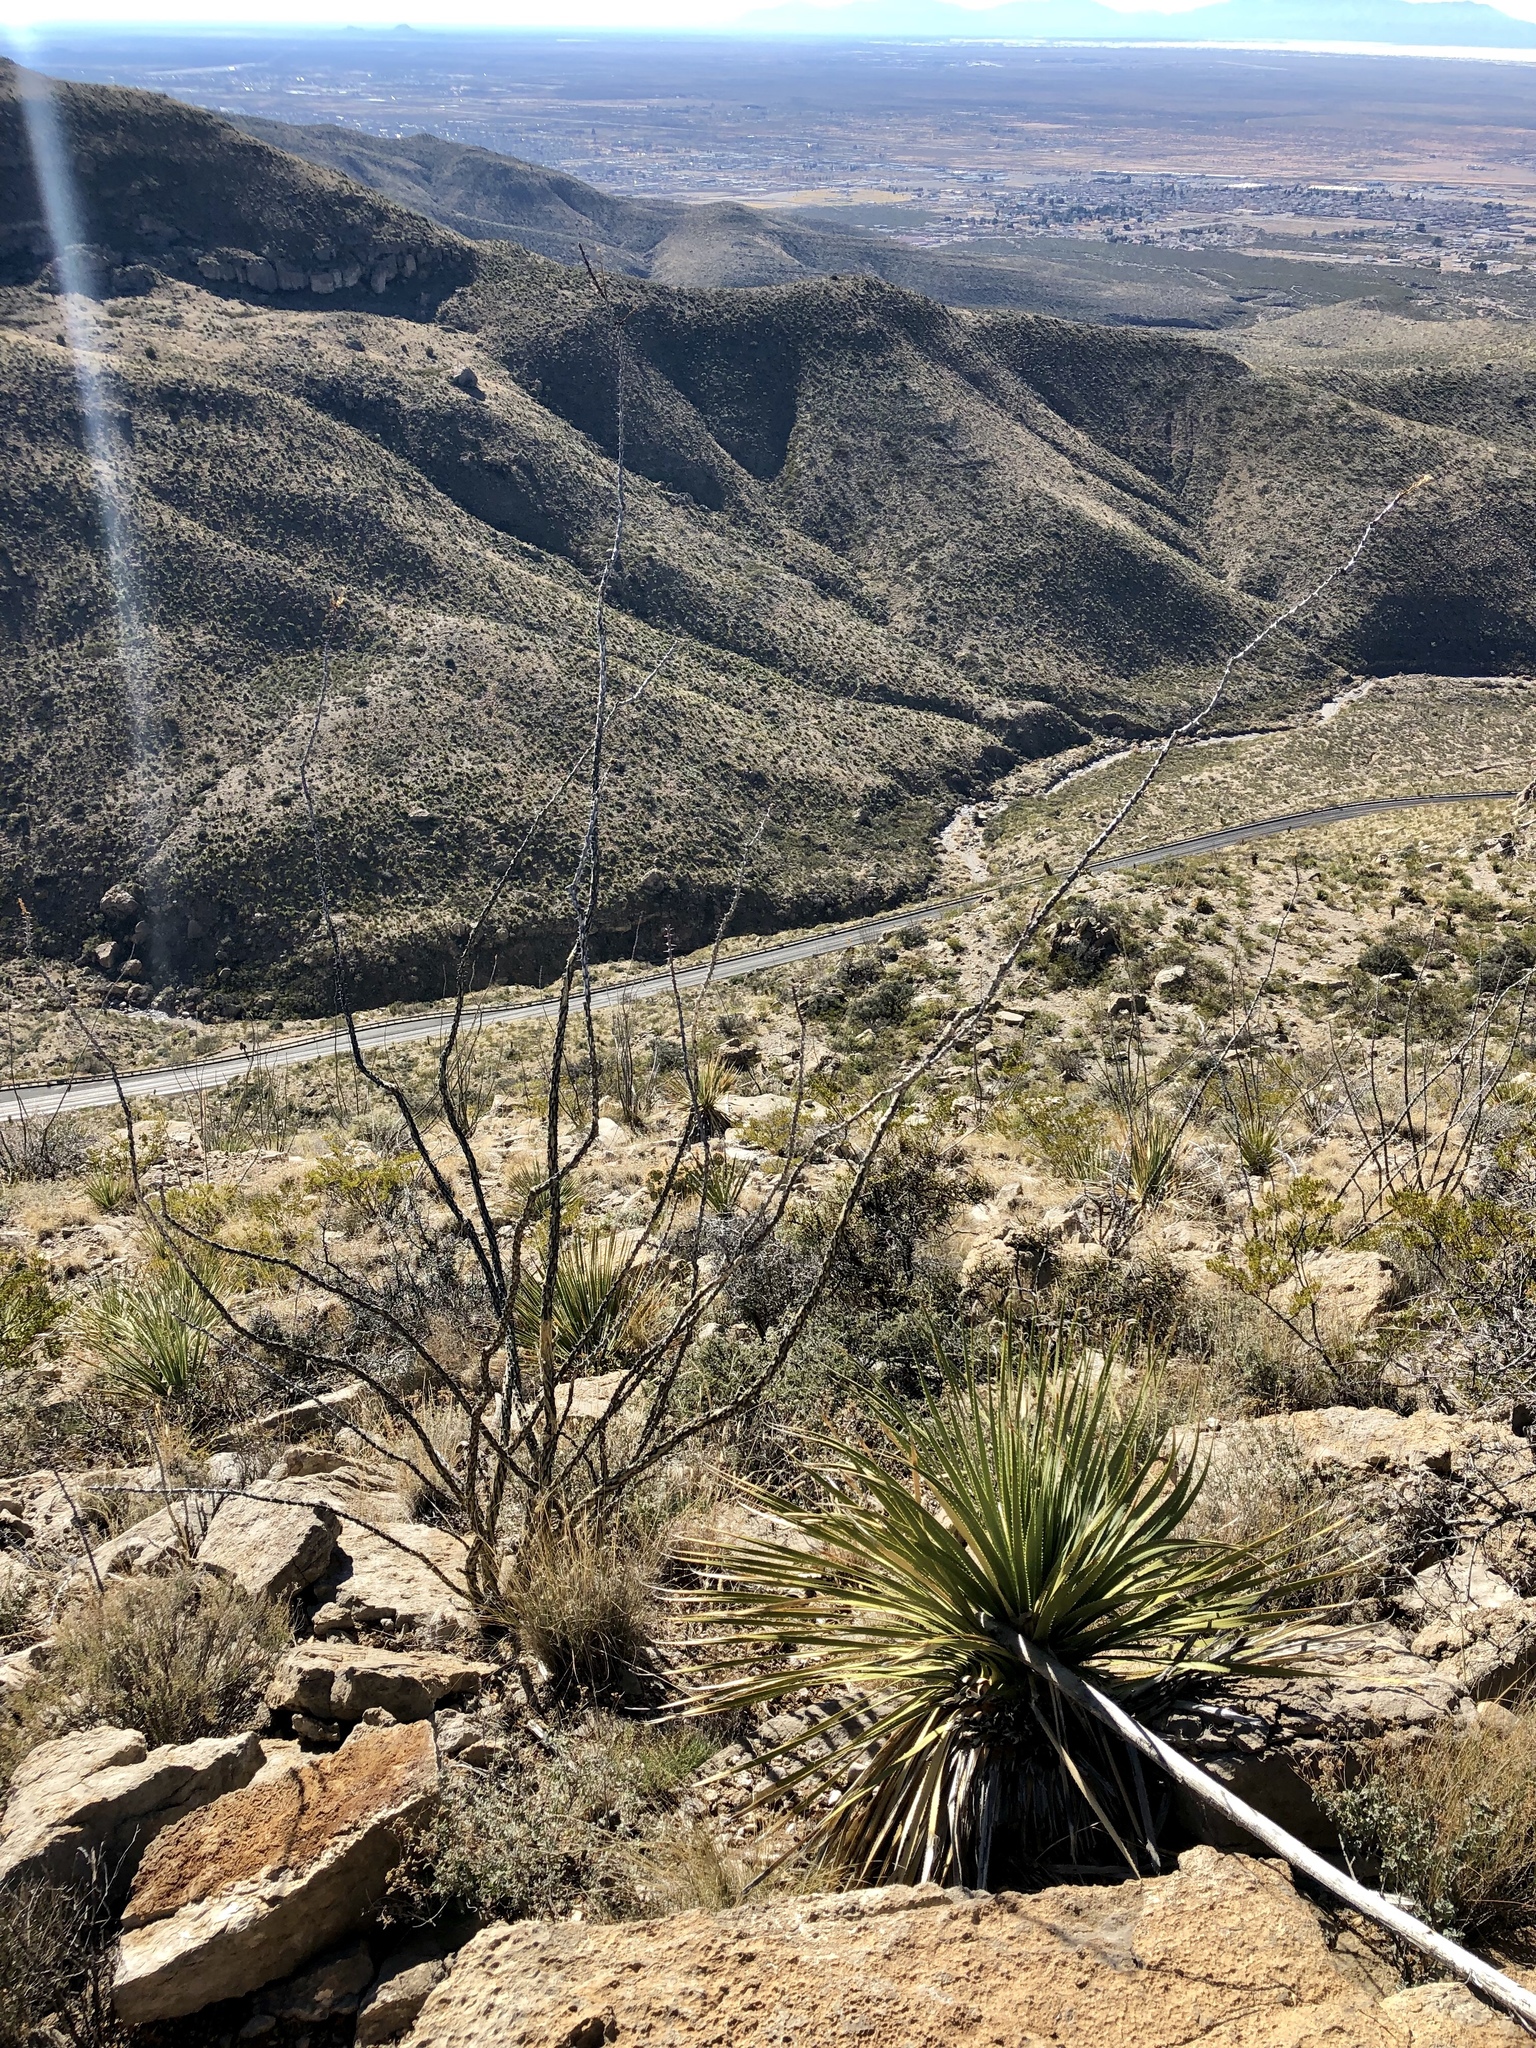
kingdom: Plantae
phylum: Tracheophyta
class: Magnoliopsida
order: Ericales
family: Fouquieriaceae
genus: Fouquieria
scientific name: Fouquieria splendens
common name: Vine-cactus
